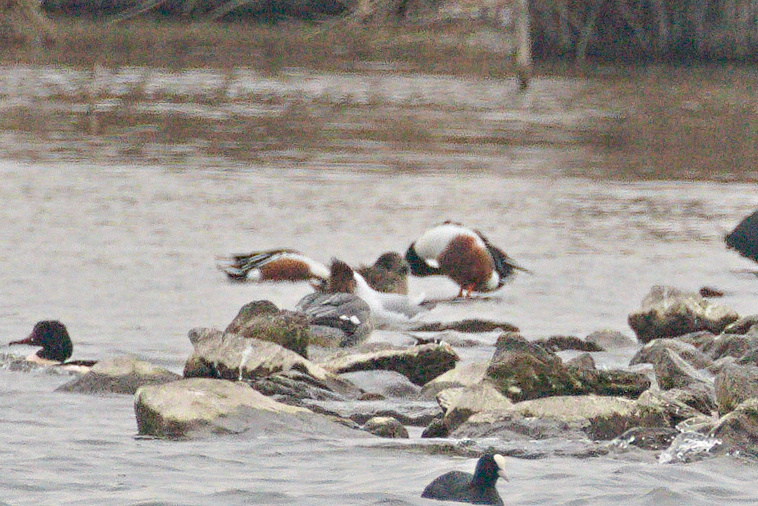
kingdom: Animalia
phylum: Chordata
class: Aves
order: Anseriformes
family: Anatidae
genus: Spatula
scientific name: Spatula clypeata
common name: Northern shoveler
